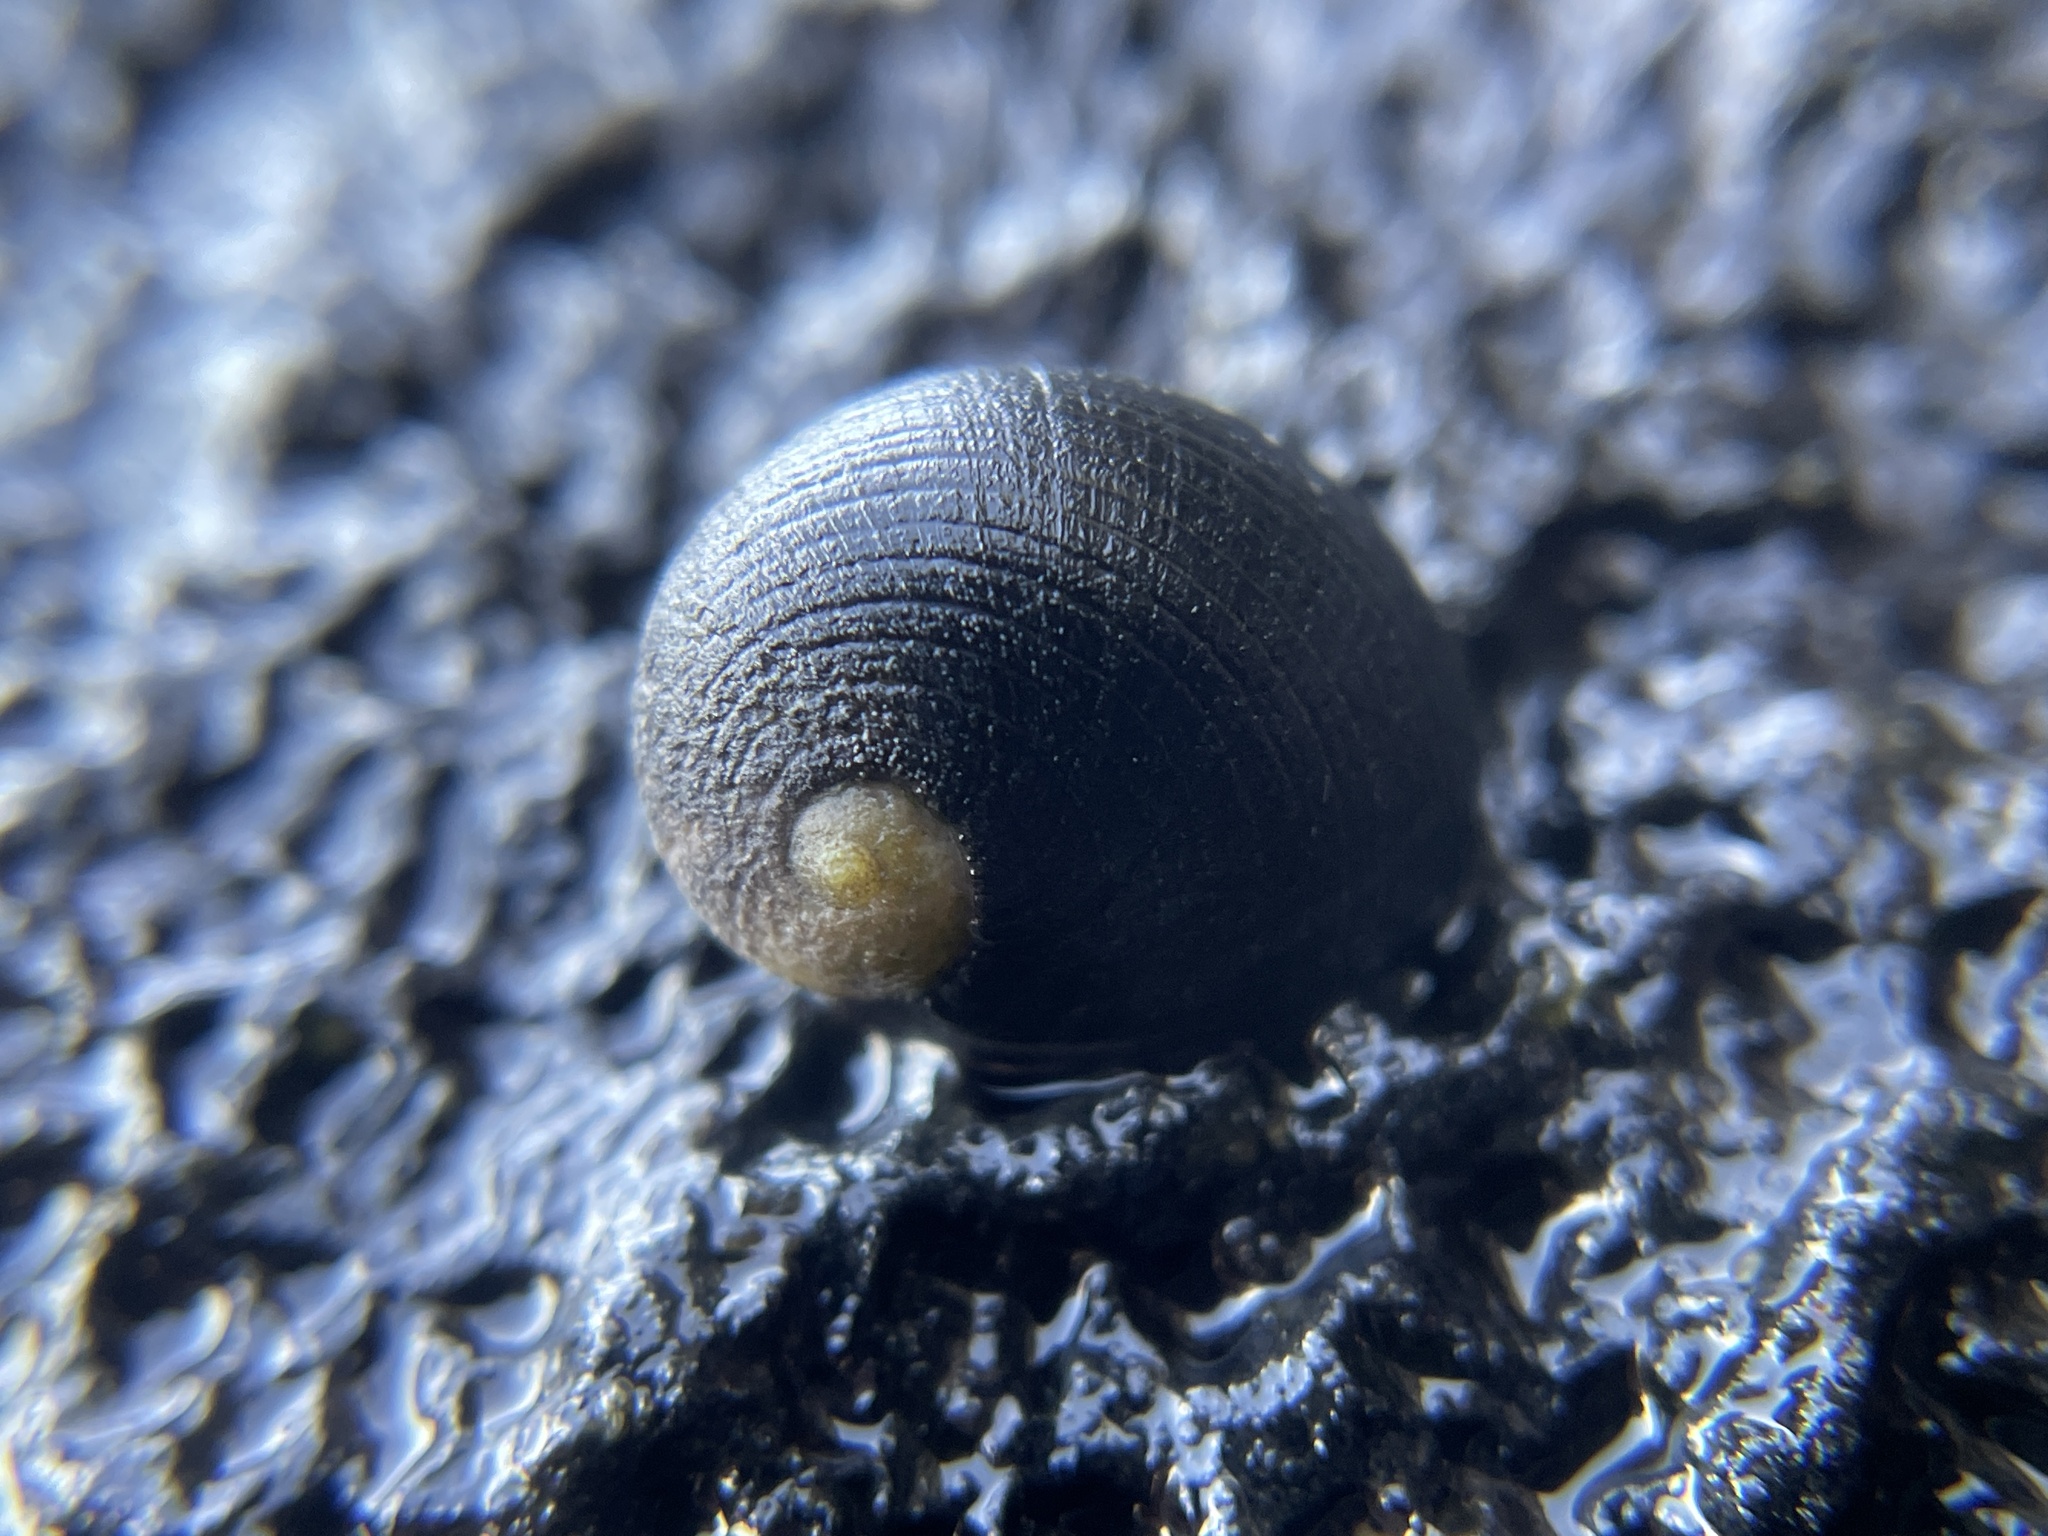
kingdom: Animalia
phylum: Mollusca
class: Gastropoda
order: Cycloneritida
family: Neritidae
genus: Nerita
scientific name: Nerita picea
